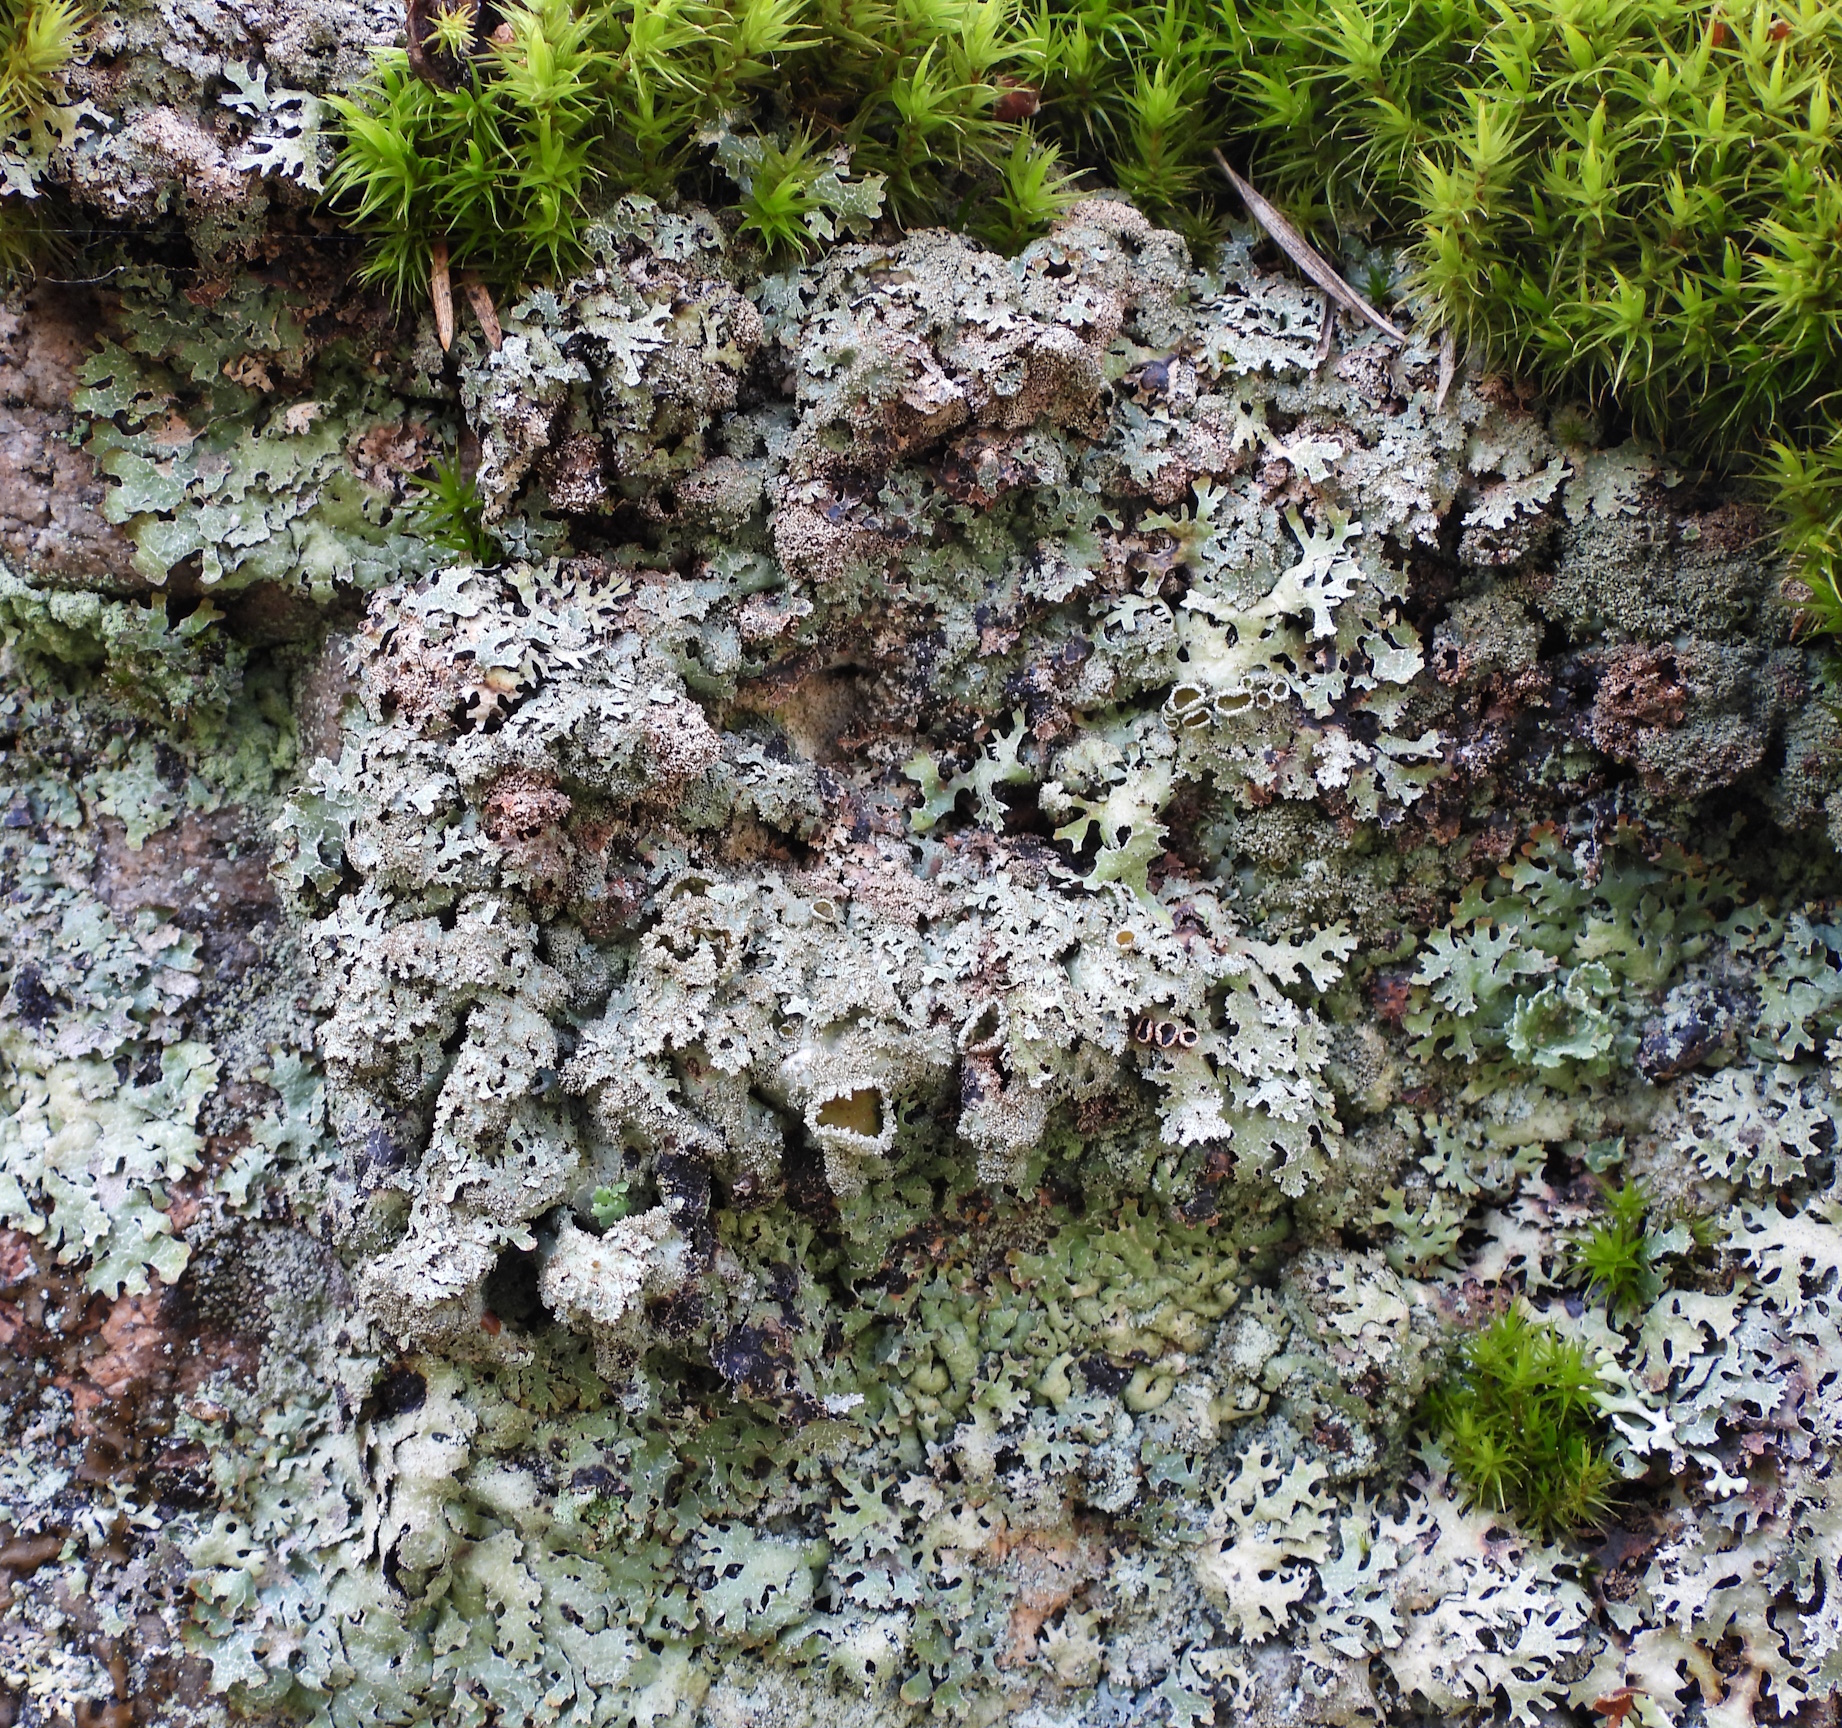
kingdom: Fungi
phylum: Ascomycota
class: Lecanoromycetes
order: Lecanorales
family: Parmeliaceae
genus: Parmelia
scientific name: Parmelia saxatilis
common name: Salted shield lichen
